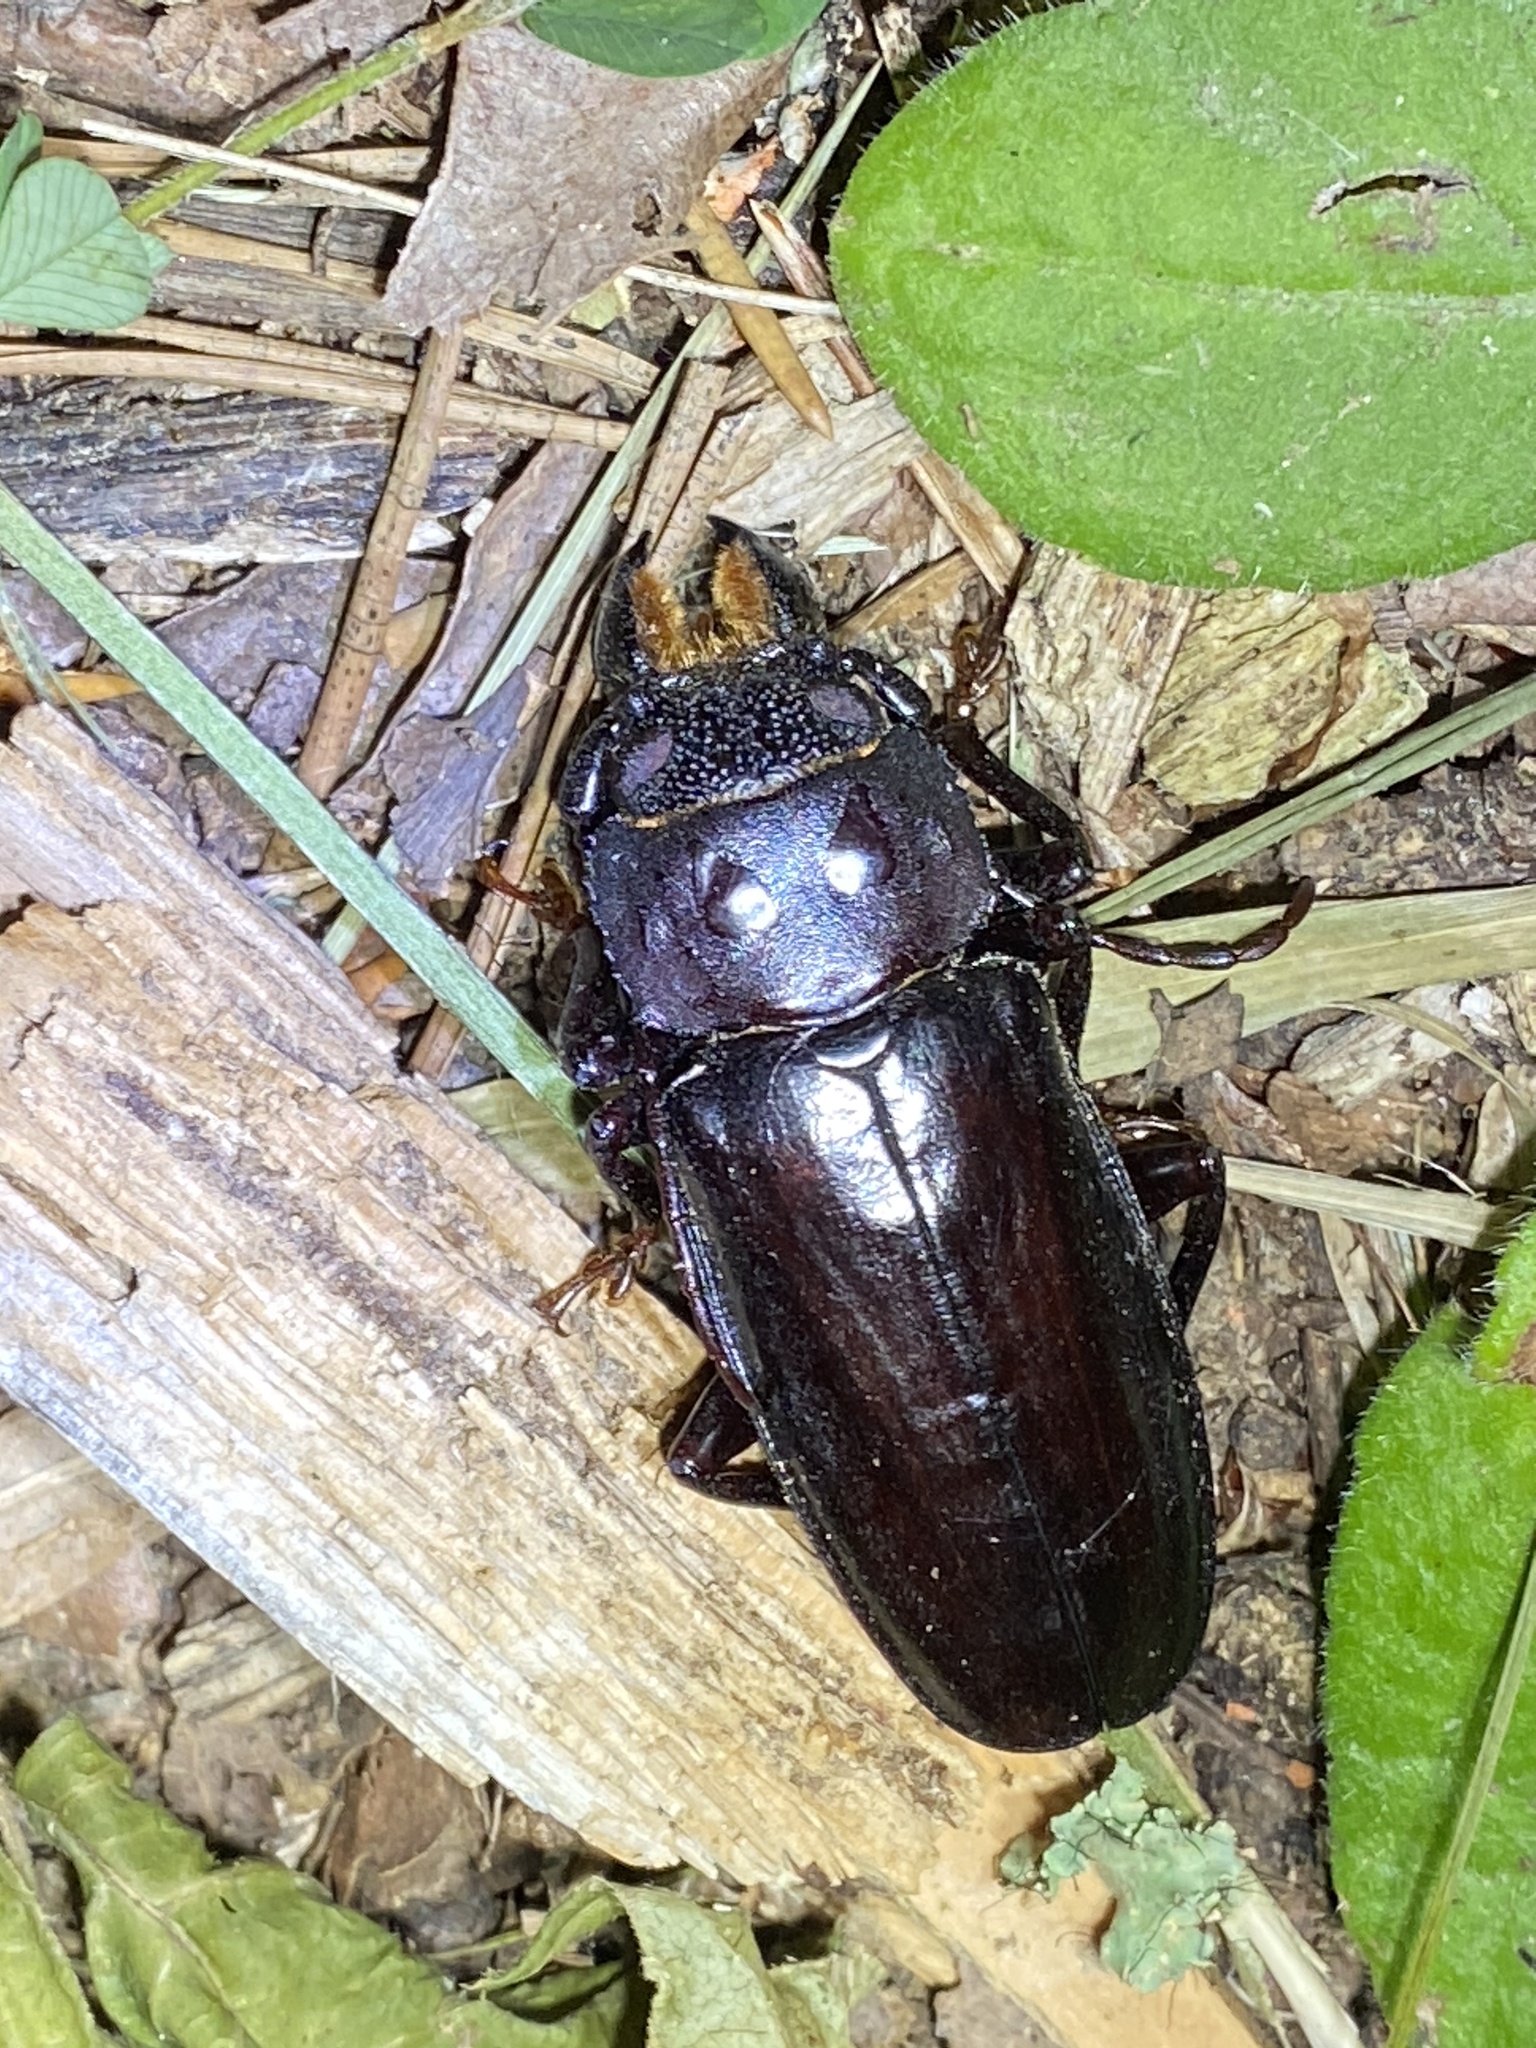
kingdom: Animalia
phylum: Arthropoda
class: Insecta
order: Coleoptera
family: Cerambycidae
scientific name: Cerambycidae
